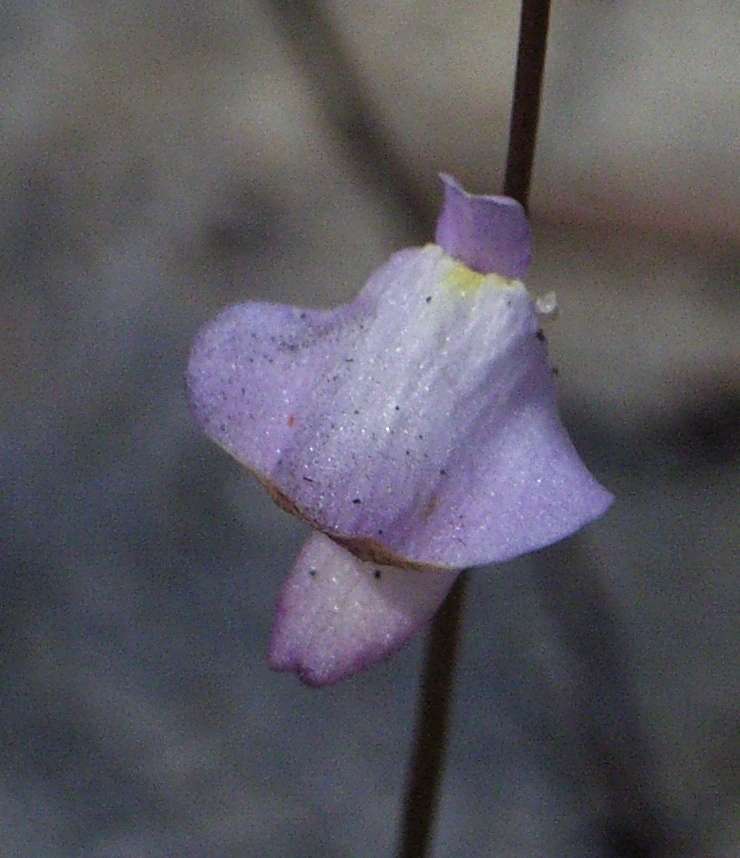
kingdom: Plantae
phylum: Tracheophyta
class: Magnoliopsida
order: Lamiales
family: Lentibulariaceae
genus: Utricularia
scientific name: Utricularia lateriflora
